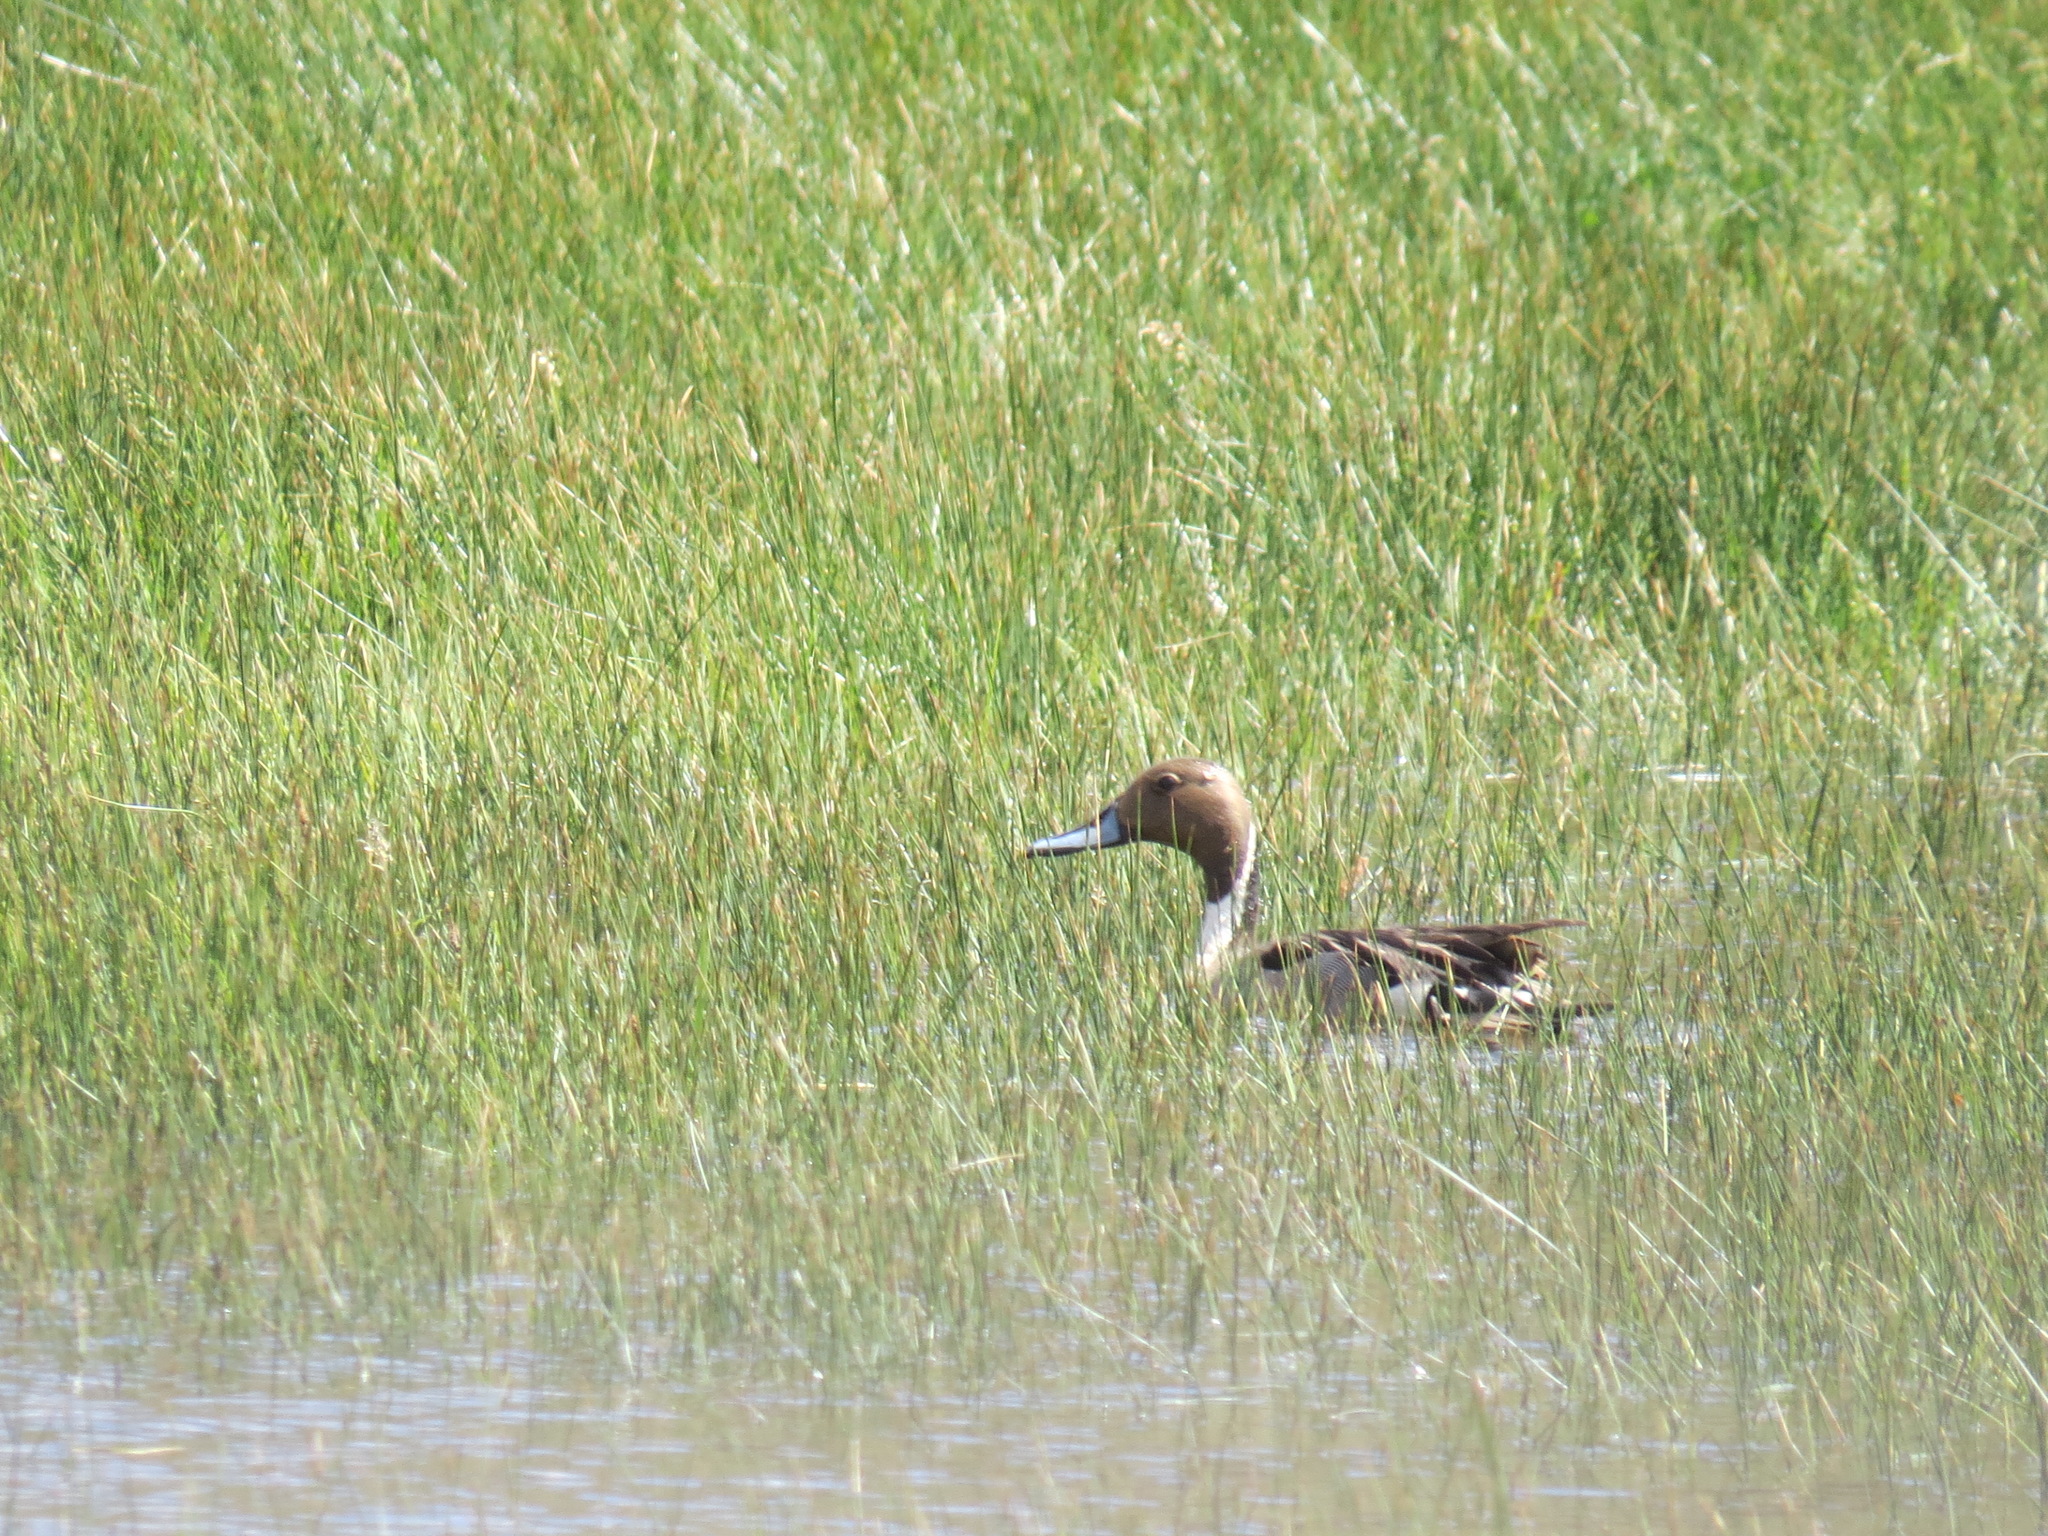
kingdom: Animalia
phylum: Chordata
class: Aves
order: Anseriformes
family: Anatidae
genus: Anas
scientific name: Anas acuta
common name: Northern pintail
